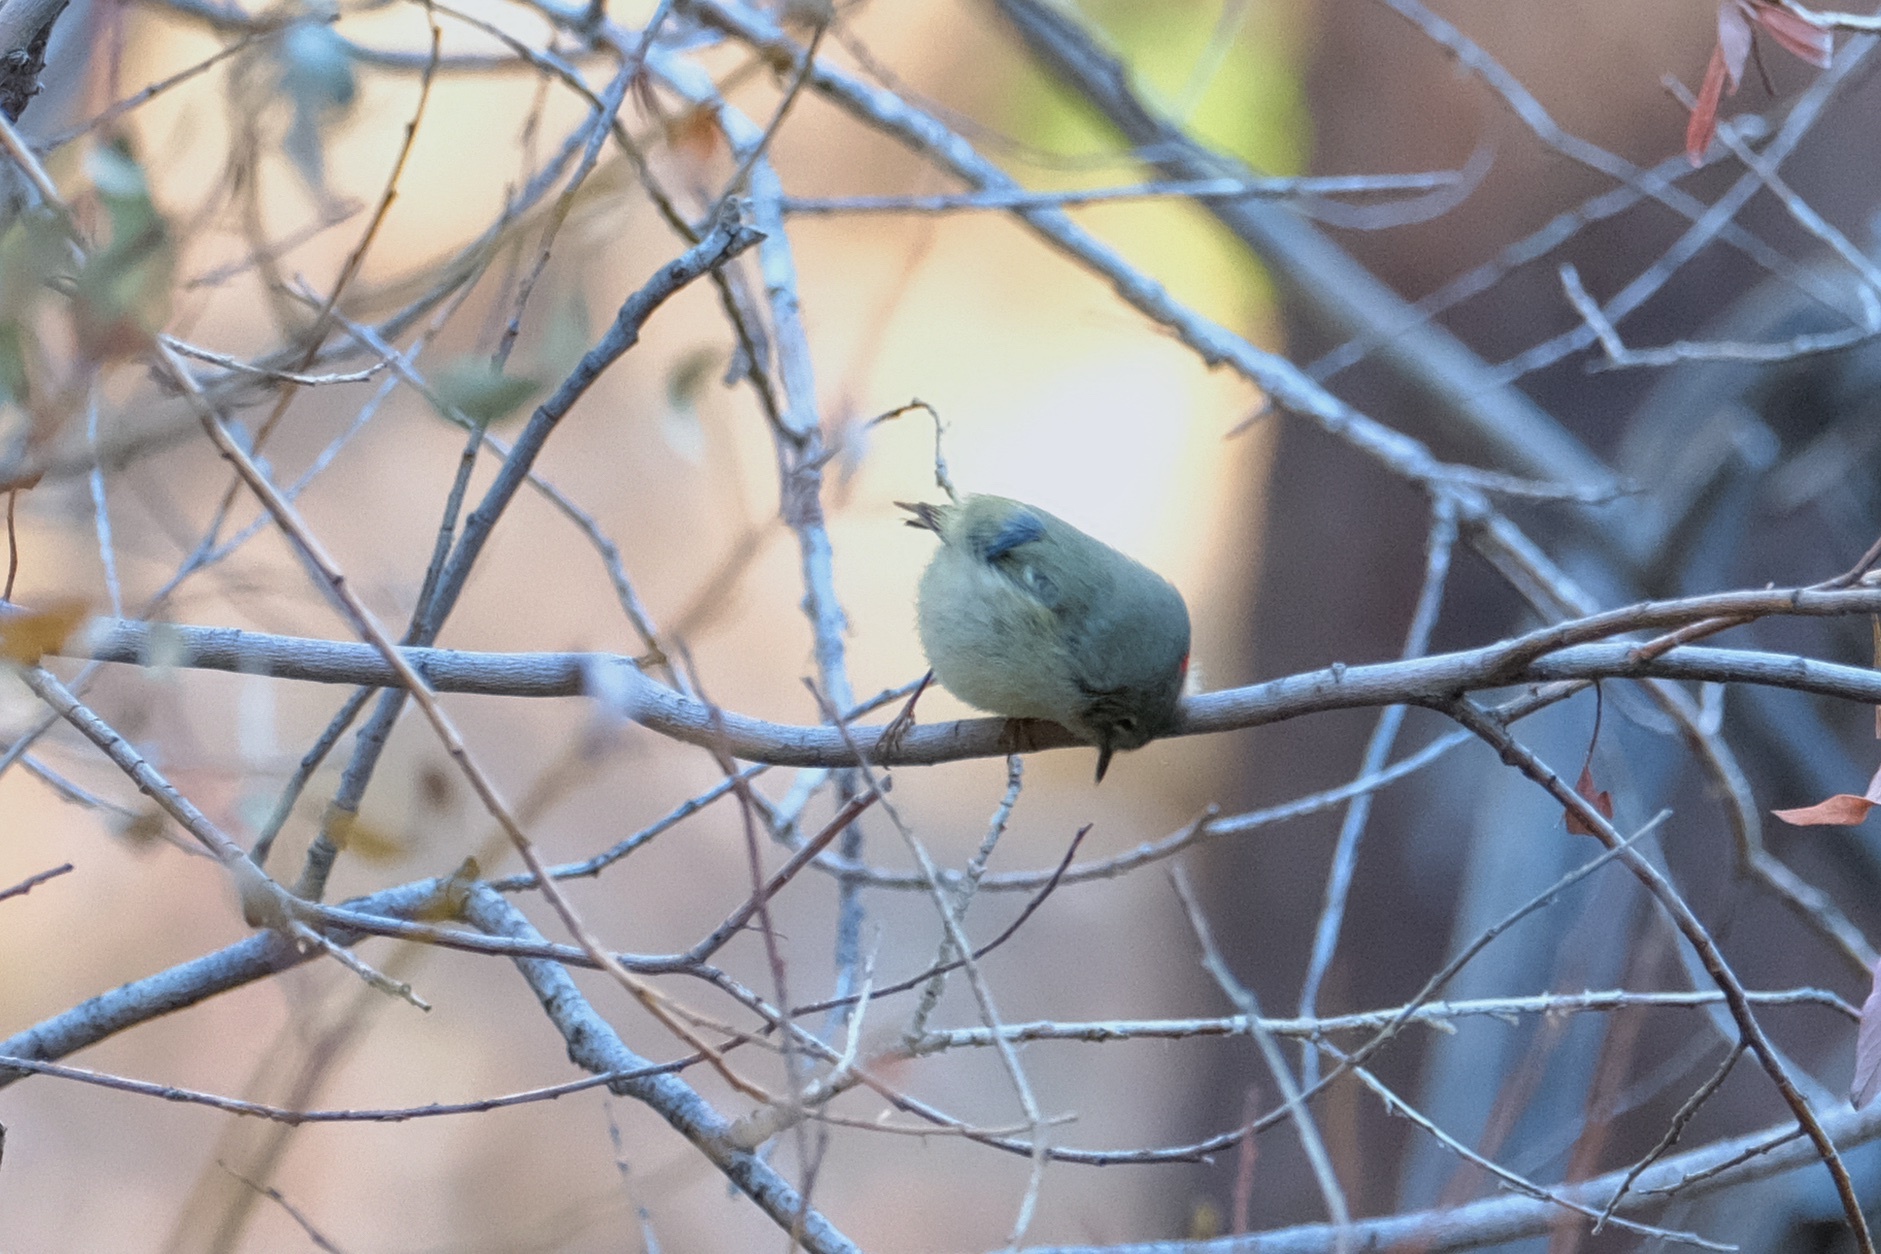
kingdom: Animalia
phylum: Chordata
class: Aves
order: Passeriformes
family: Regulidae
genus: Regulus
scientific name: Regulus calendula
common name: Ruby-crowned kinglet
